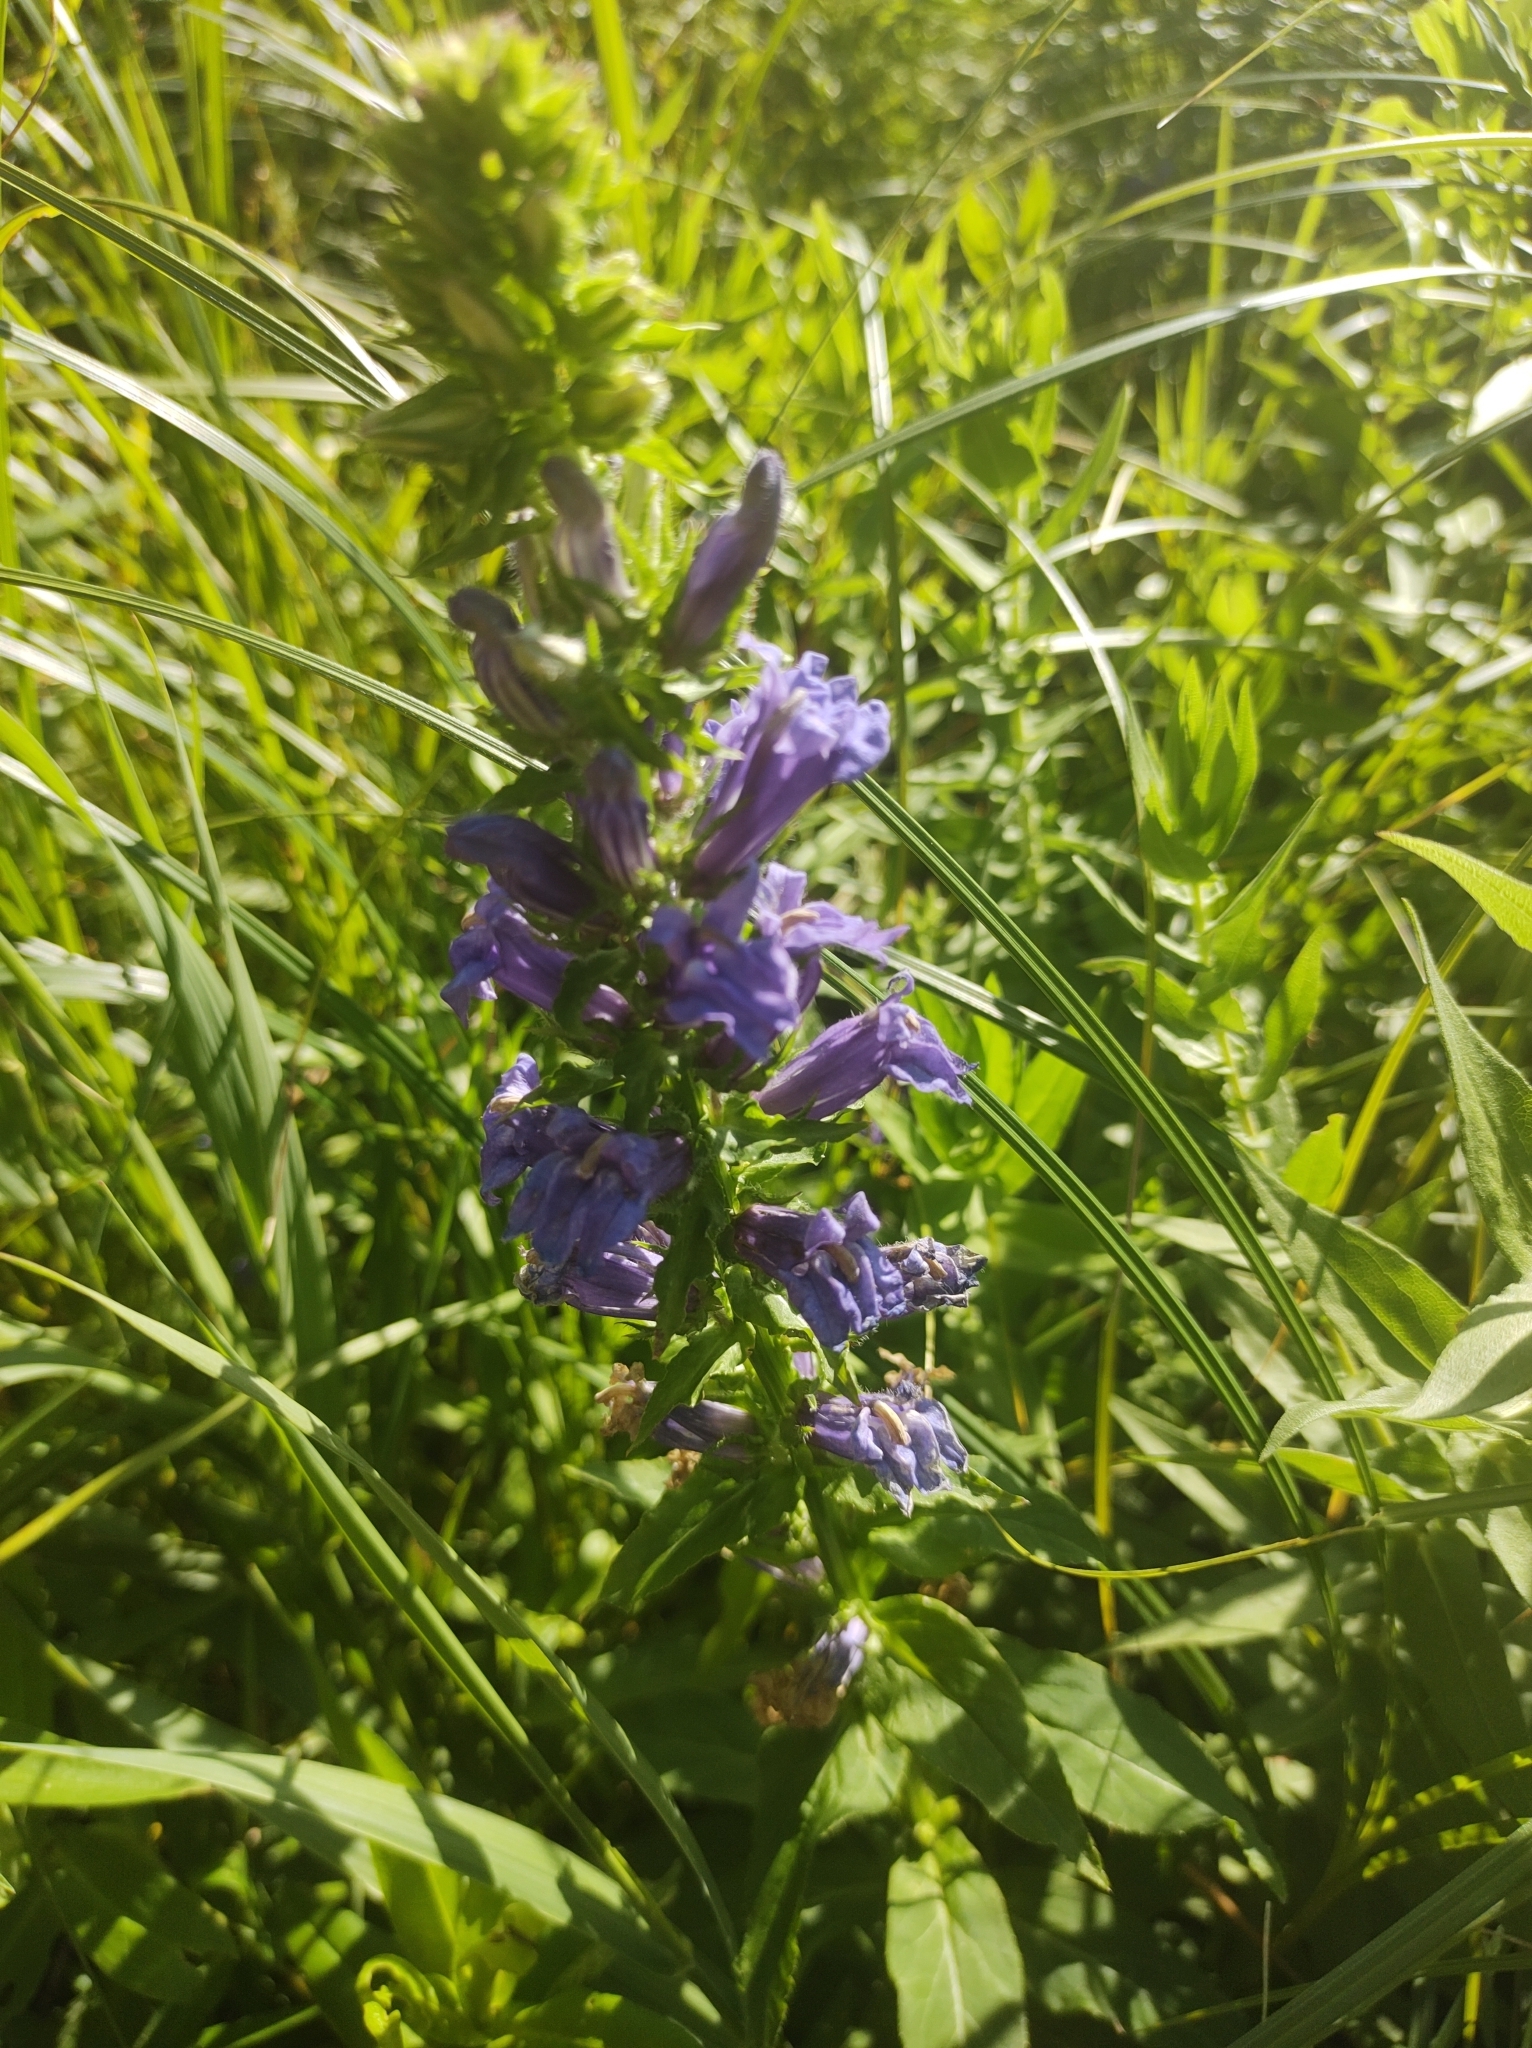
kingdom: Plantae
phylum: Tracheophyta
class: Magnoliopsida
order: Asterales
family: Campanulaceae
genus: Lobelia
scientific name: Lobelia siphilitica
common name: Great lobelia
